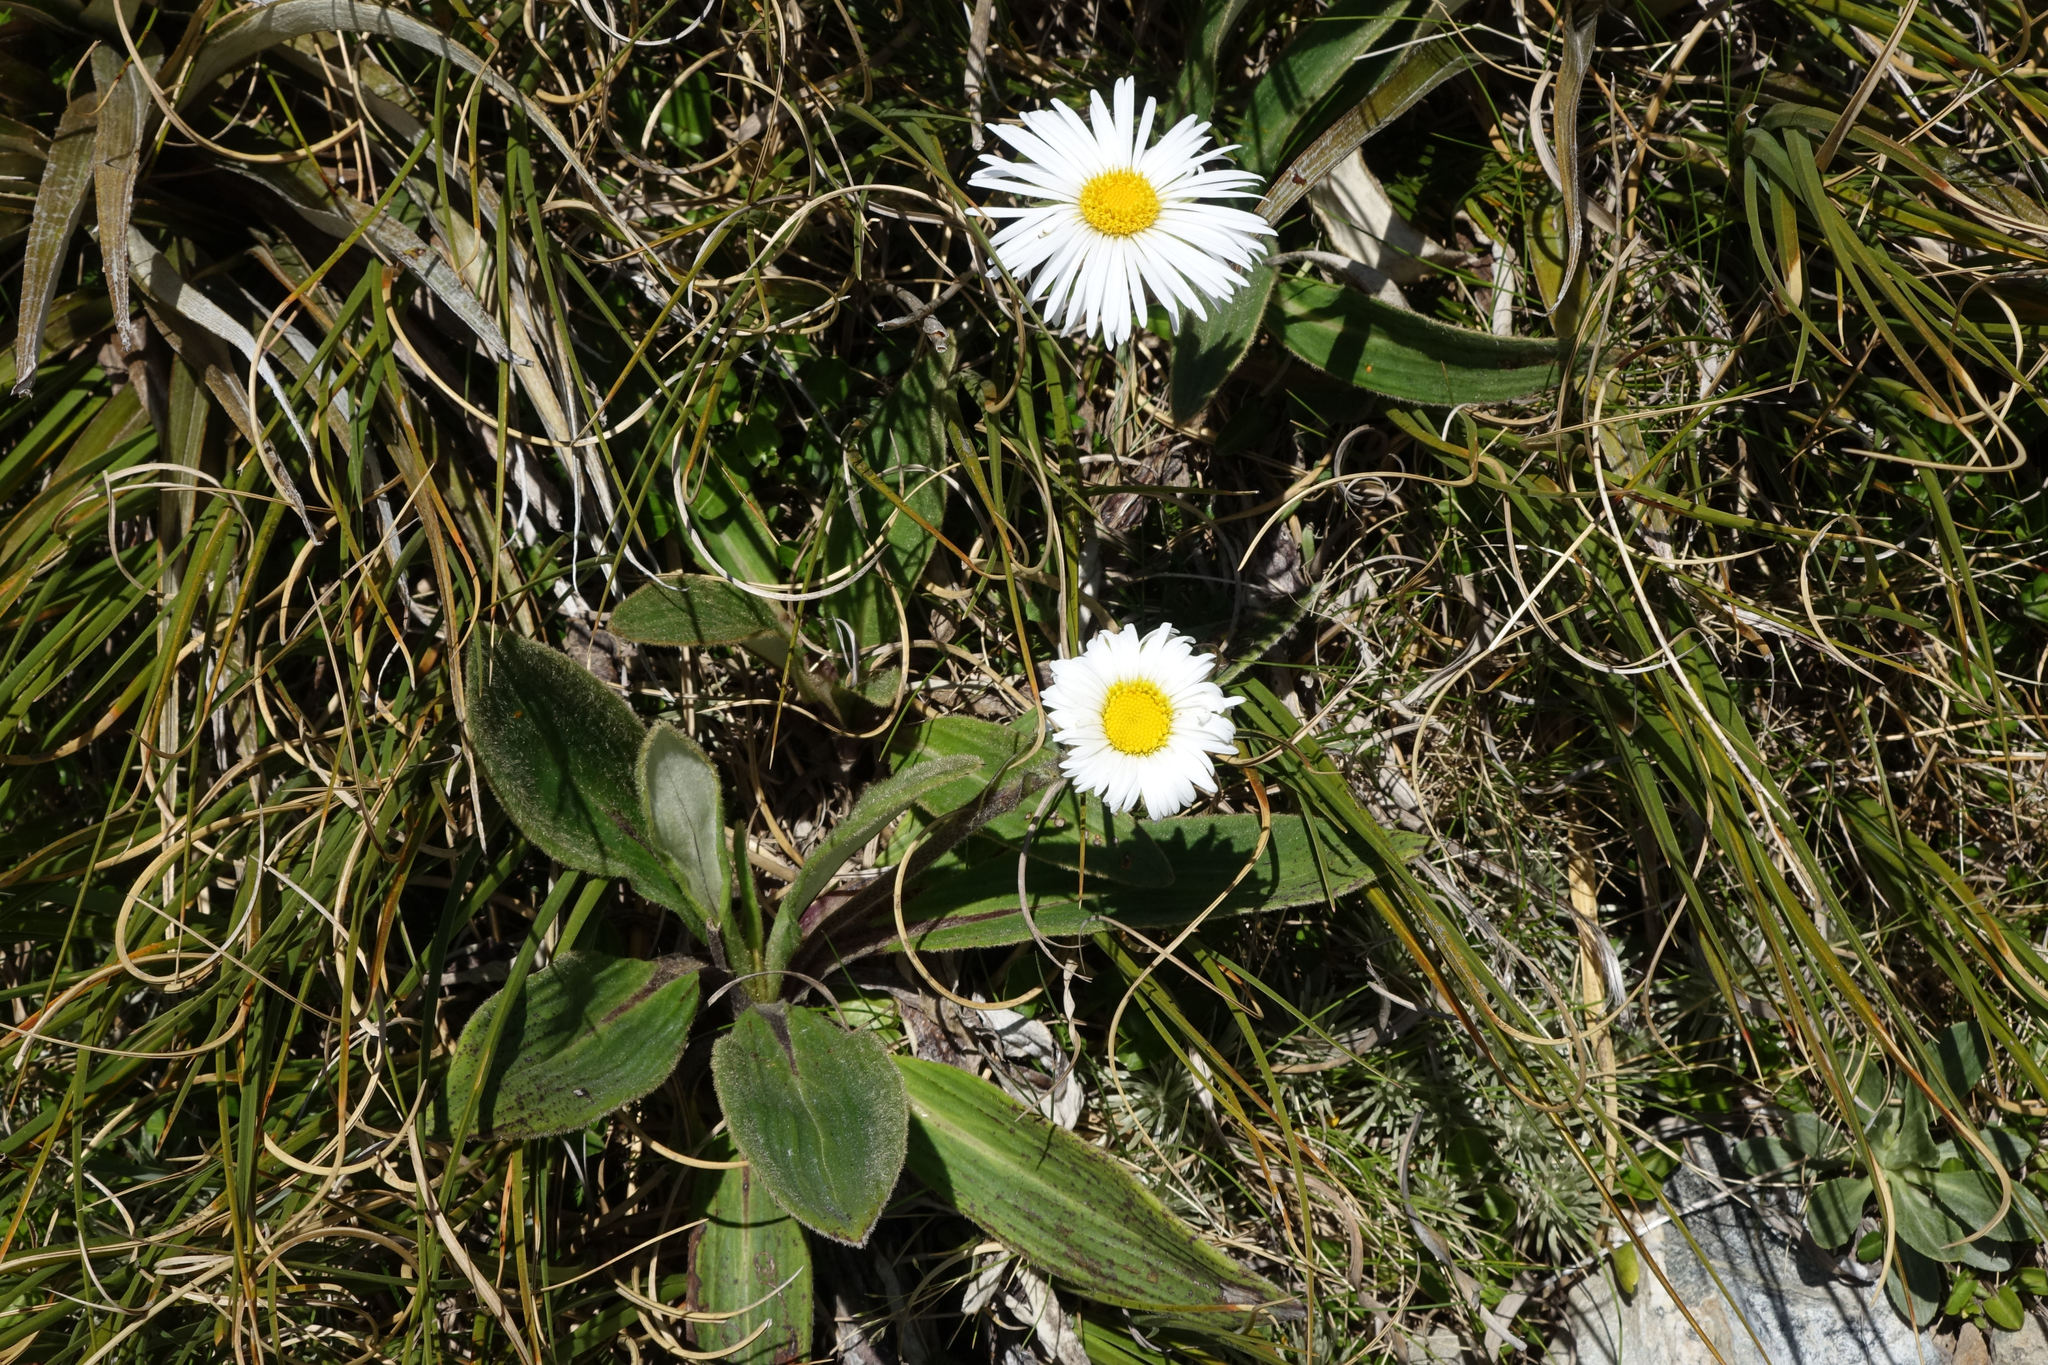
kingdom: Plantae
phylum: Tracheophyta
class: Magnoliopsida
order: Asterales
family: Asteraceae
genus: Celmisia
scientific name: Celmisia verbascifolia
